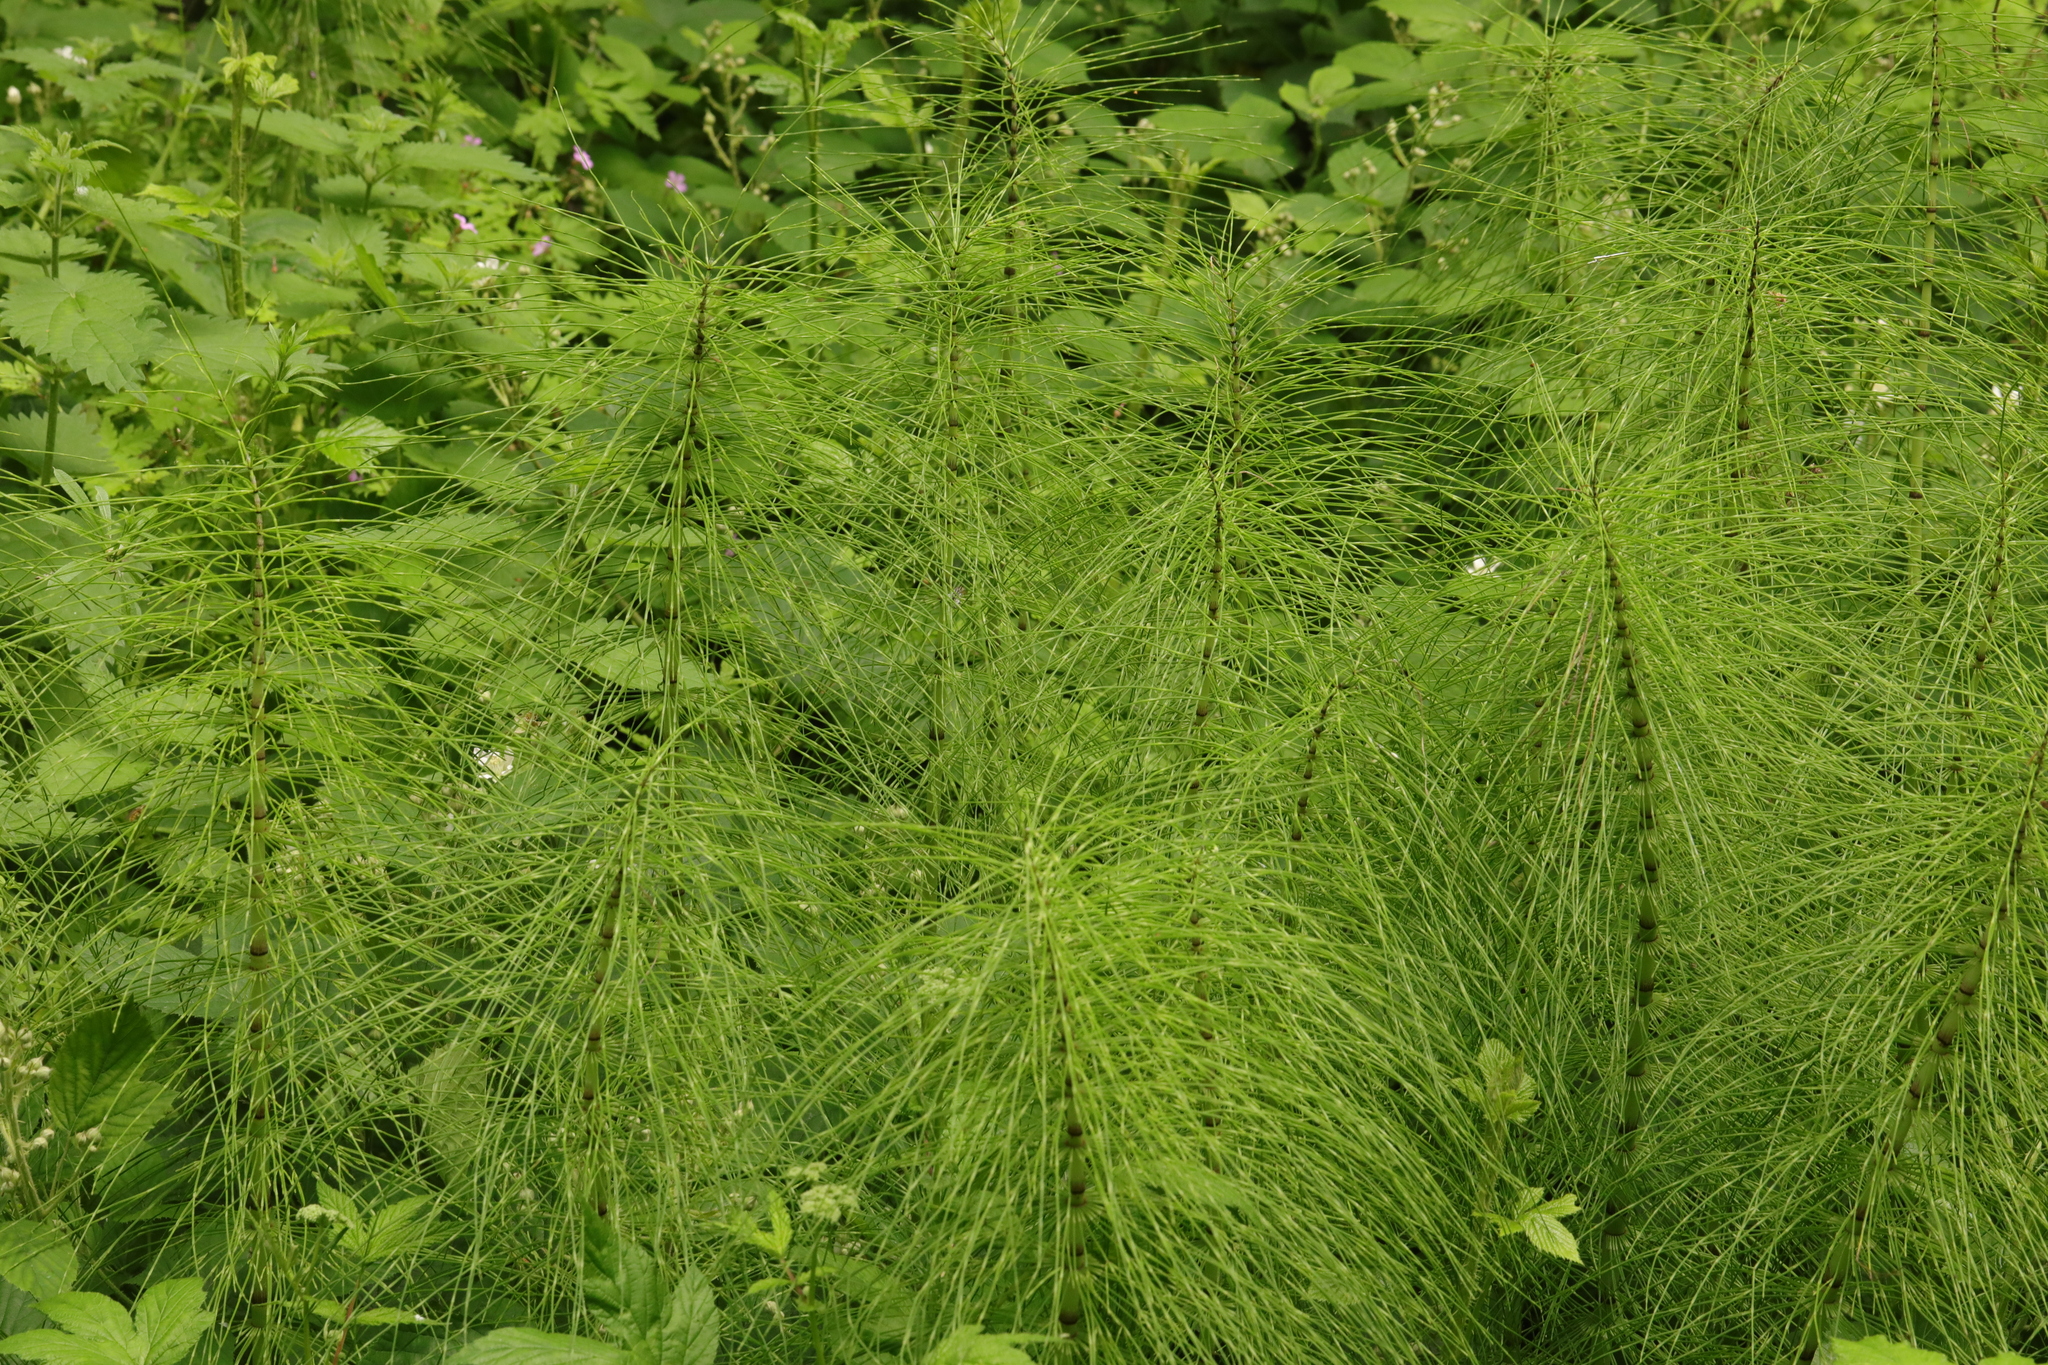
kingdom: Plantae
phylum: Tracheophyta
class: Polypodiopsida
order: Equisetales
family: Equisetaceae
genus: Equisetum
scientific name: Equisetum telmateia
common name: Great horsetail
